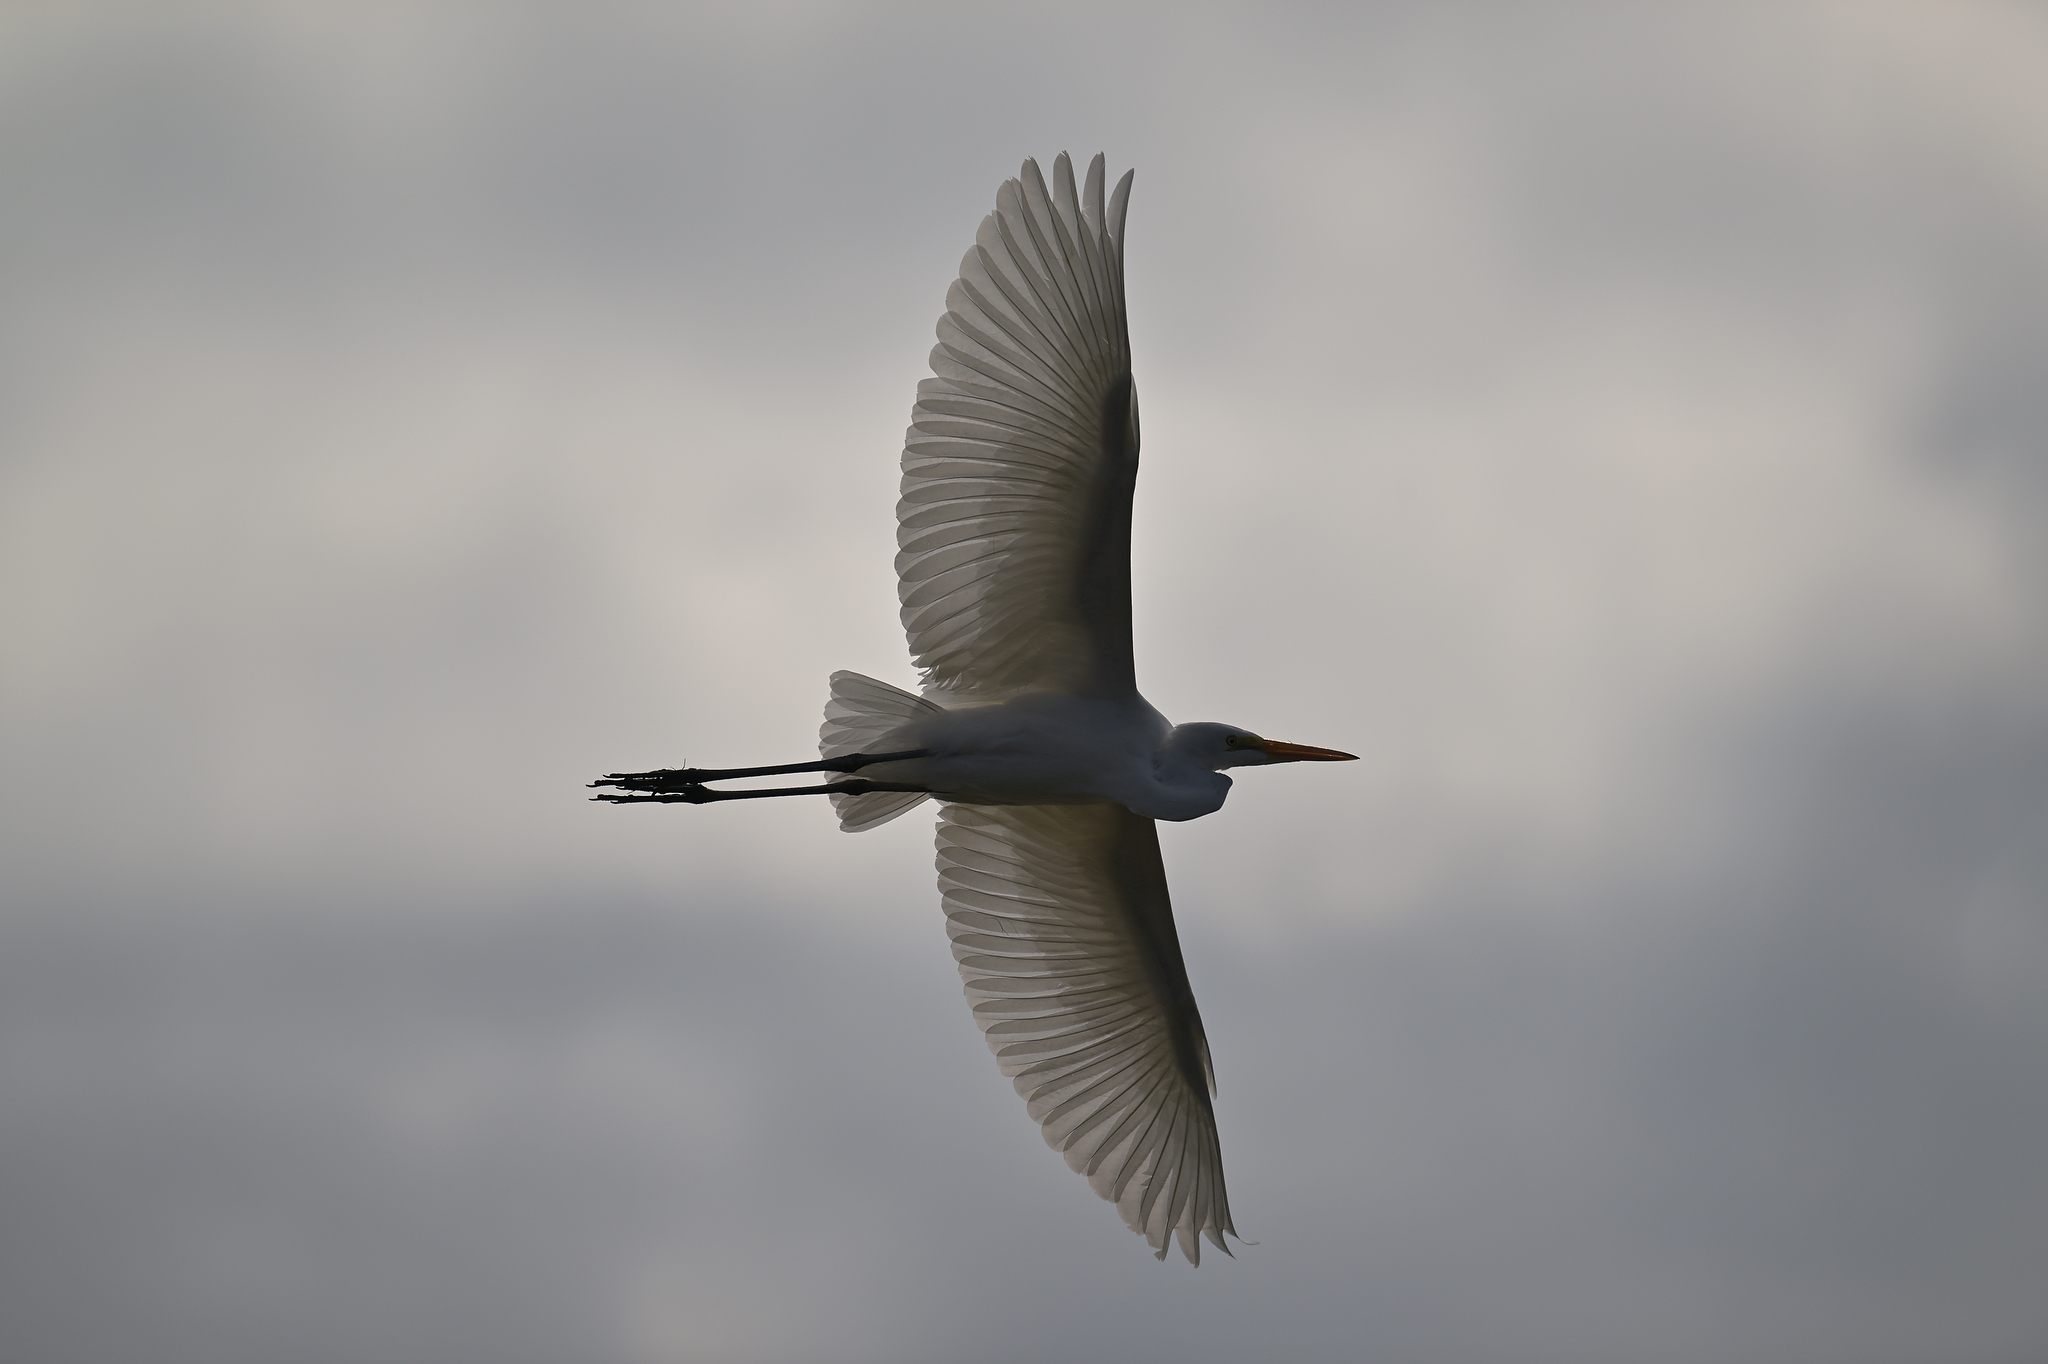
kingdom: Animalia
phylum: Chordata
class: Aves
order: Pelecaniformes
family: Ardeidae
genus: Ardea
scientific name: Ardea alba
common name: Great egret
